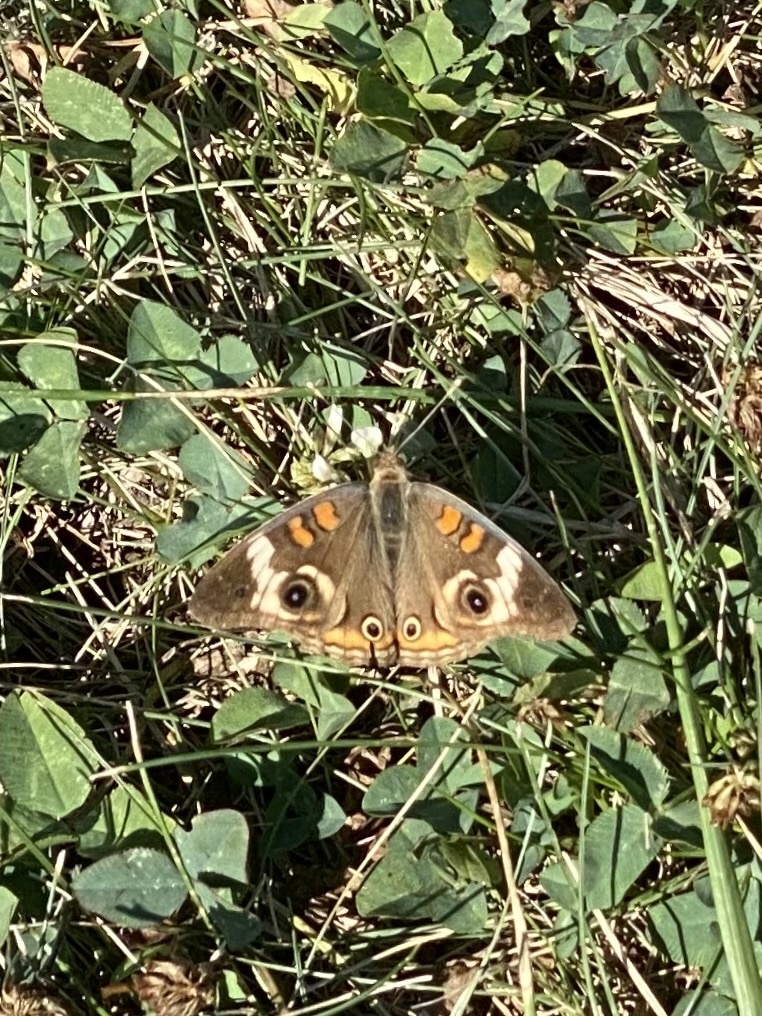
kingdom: Animalia
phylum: Arthropoda
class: Insecta
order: Lepidoptera
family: Nymphalidae
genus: Junonia
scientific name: Junonia coenia
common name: Common buckeye
